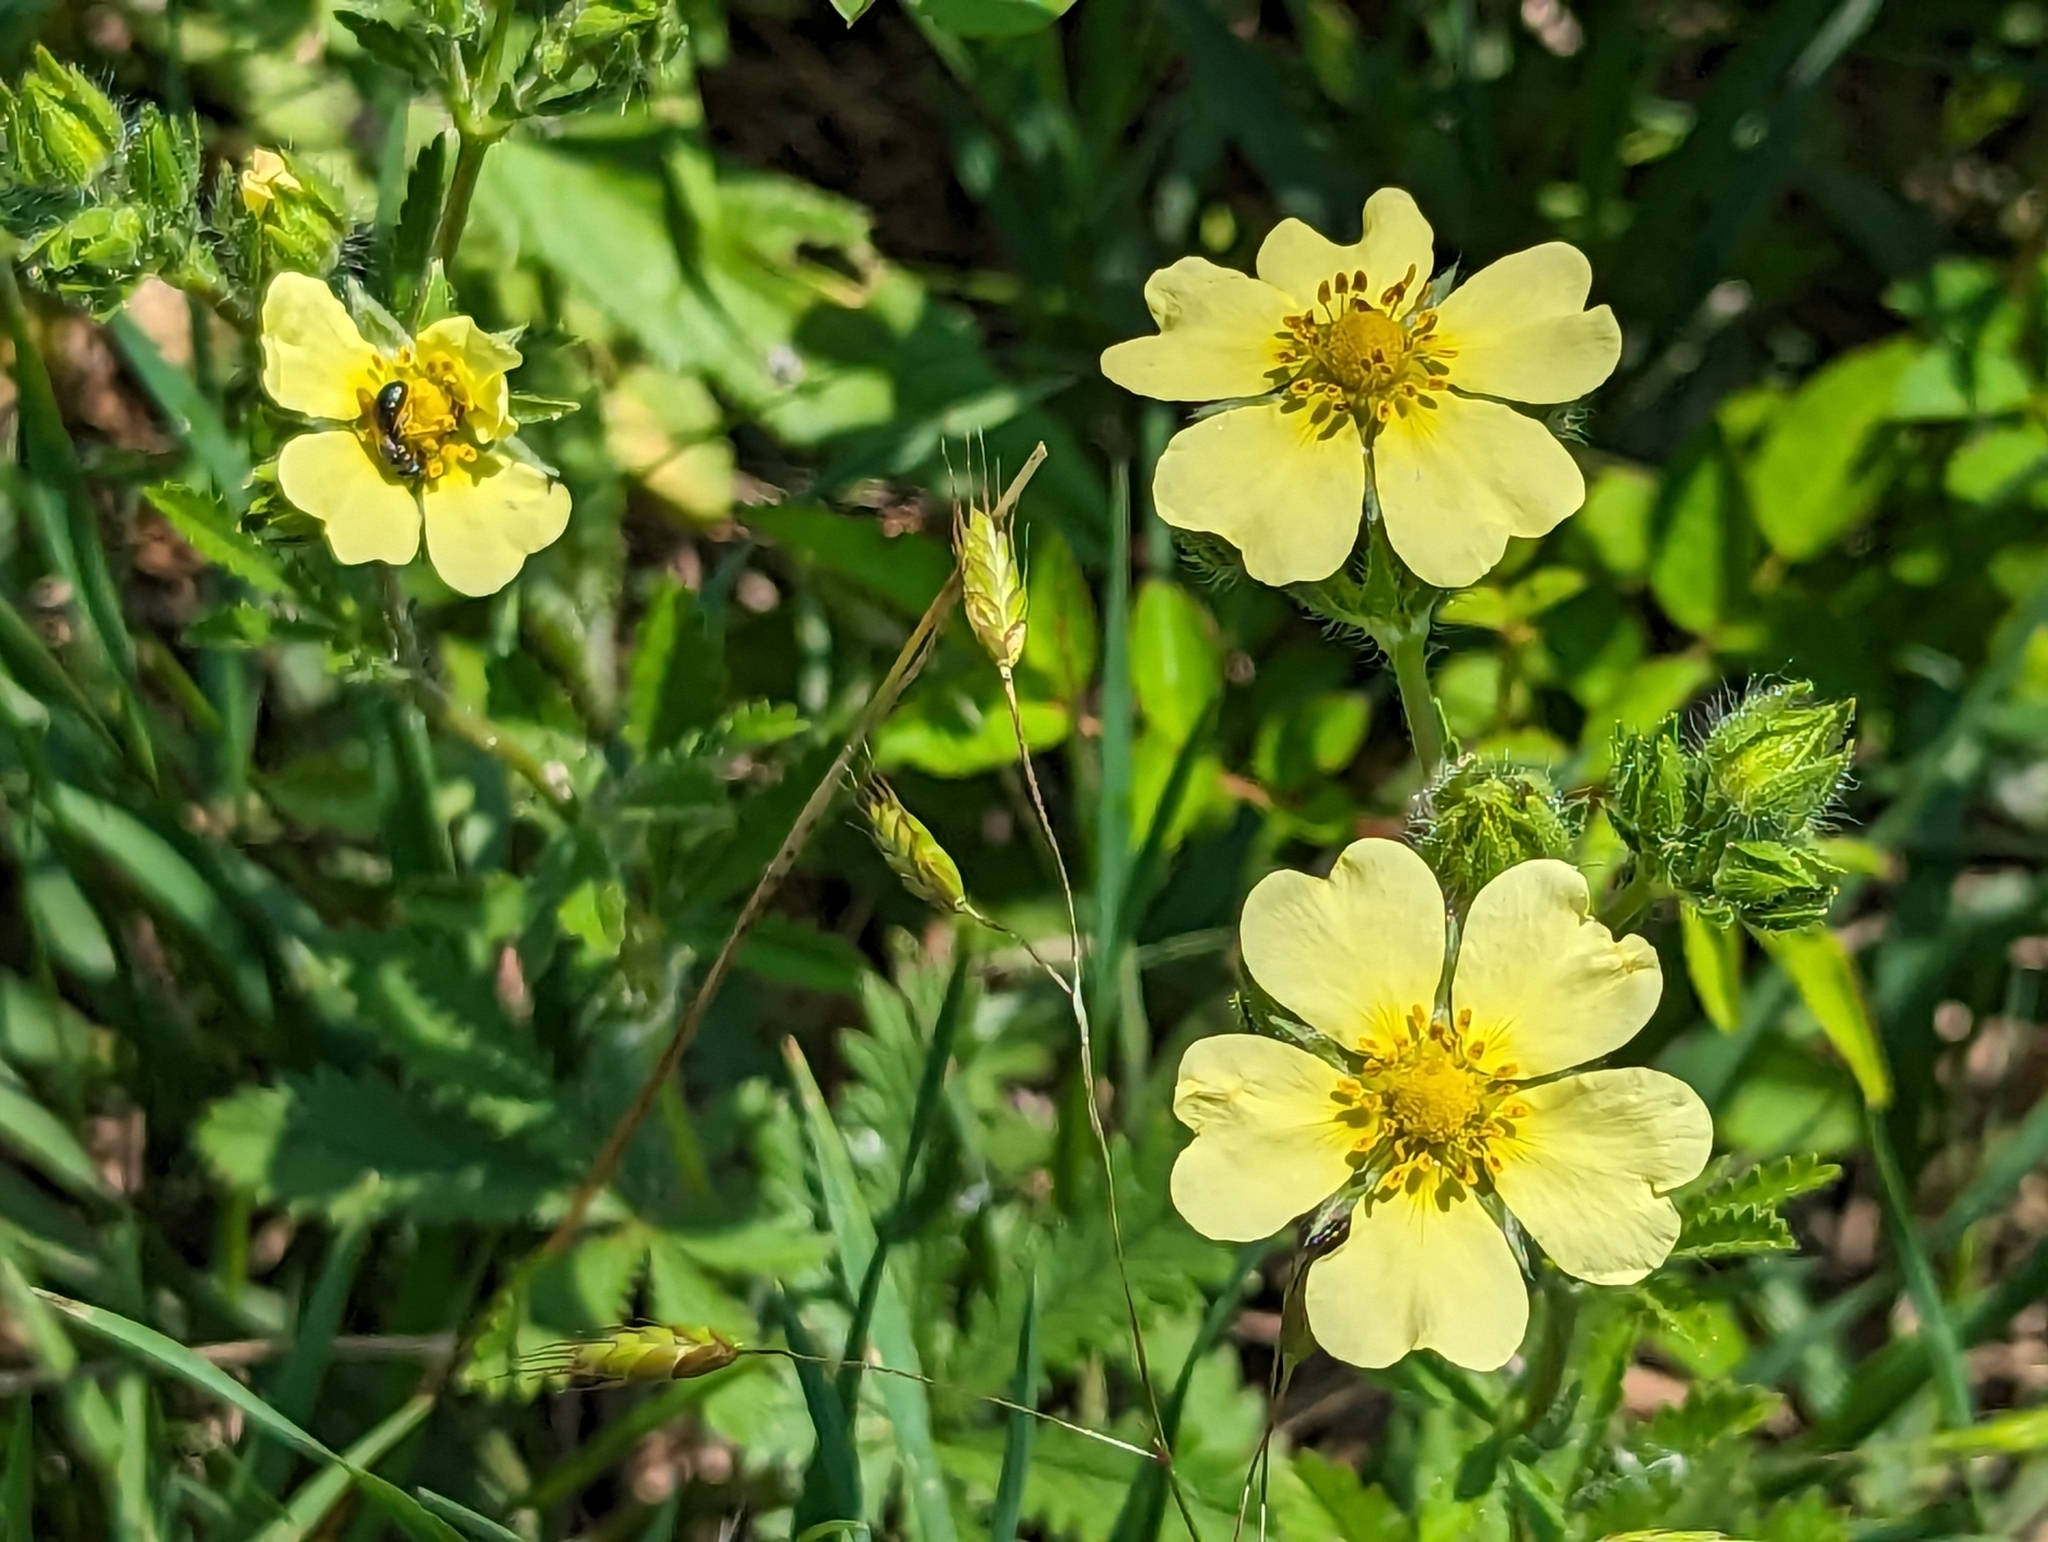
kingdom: Plantae
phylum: Tracheophyta
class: Magnoliopsida
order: Rosales
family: Rosaceae
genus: Potentilla
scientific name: Potentilla recta
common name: Sulphur cinquefoil
